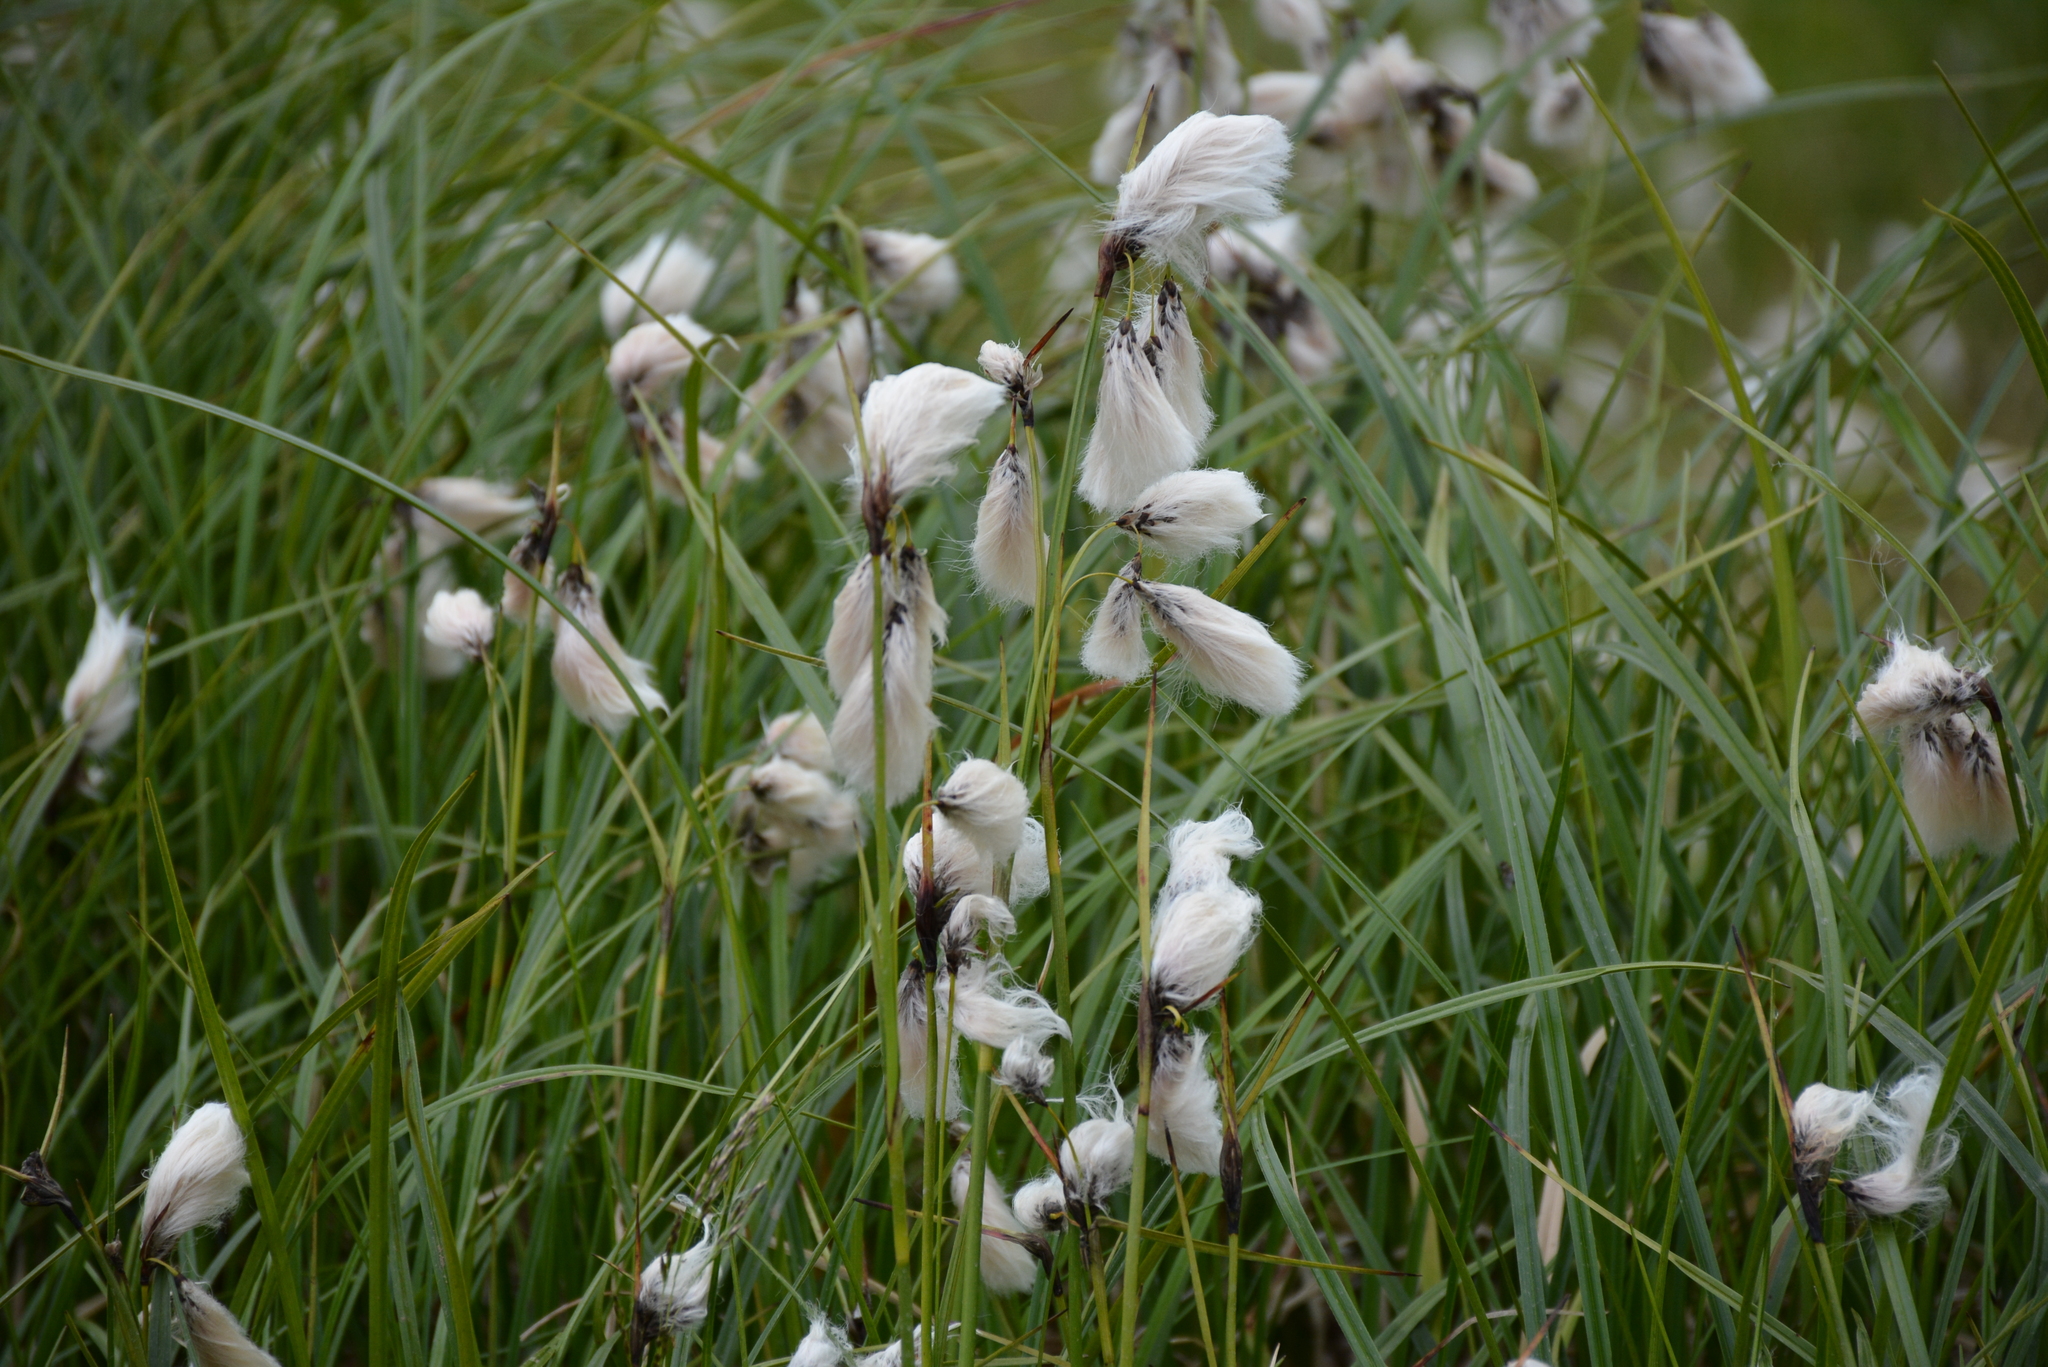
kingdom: Plantae
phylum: Tracheophyta
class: Liliopsida
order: Poales
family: Cyperaceae
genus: Eriophorum
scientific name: Eriophorum angustifolium
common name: Common cottongrass
